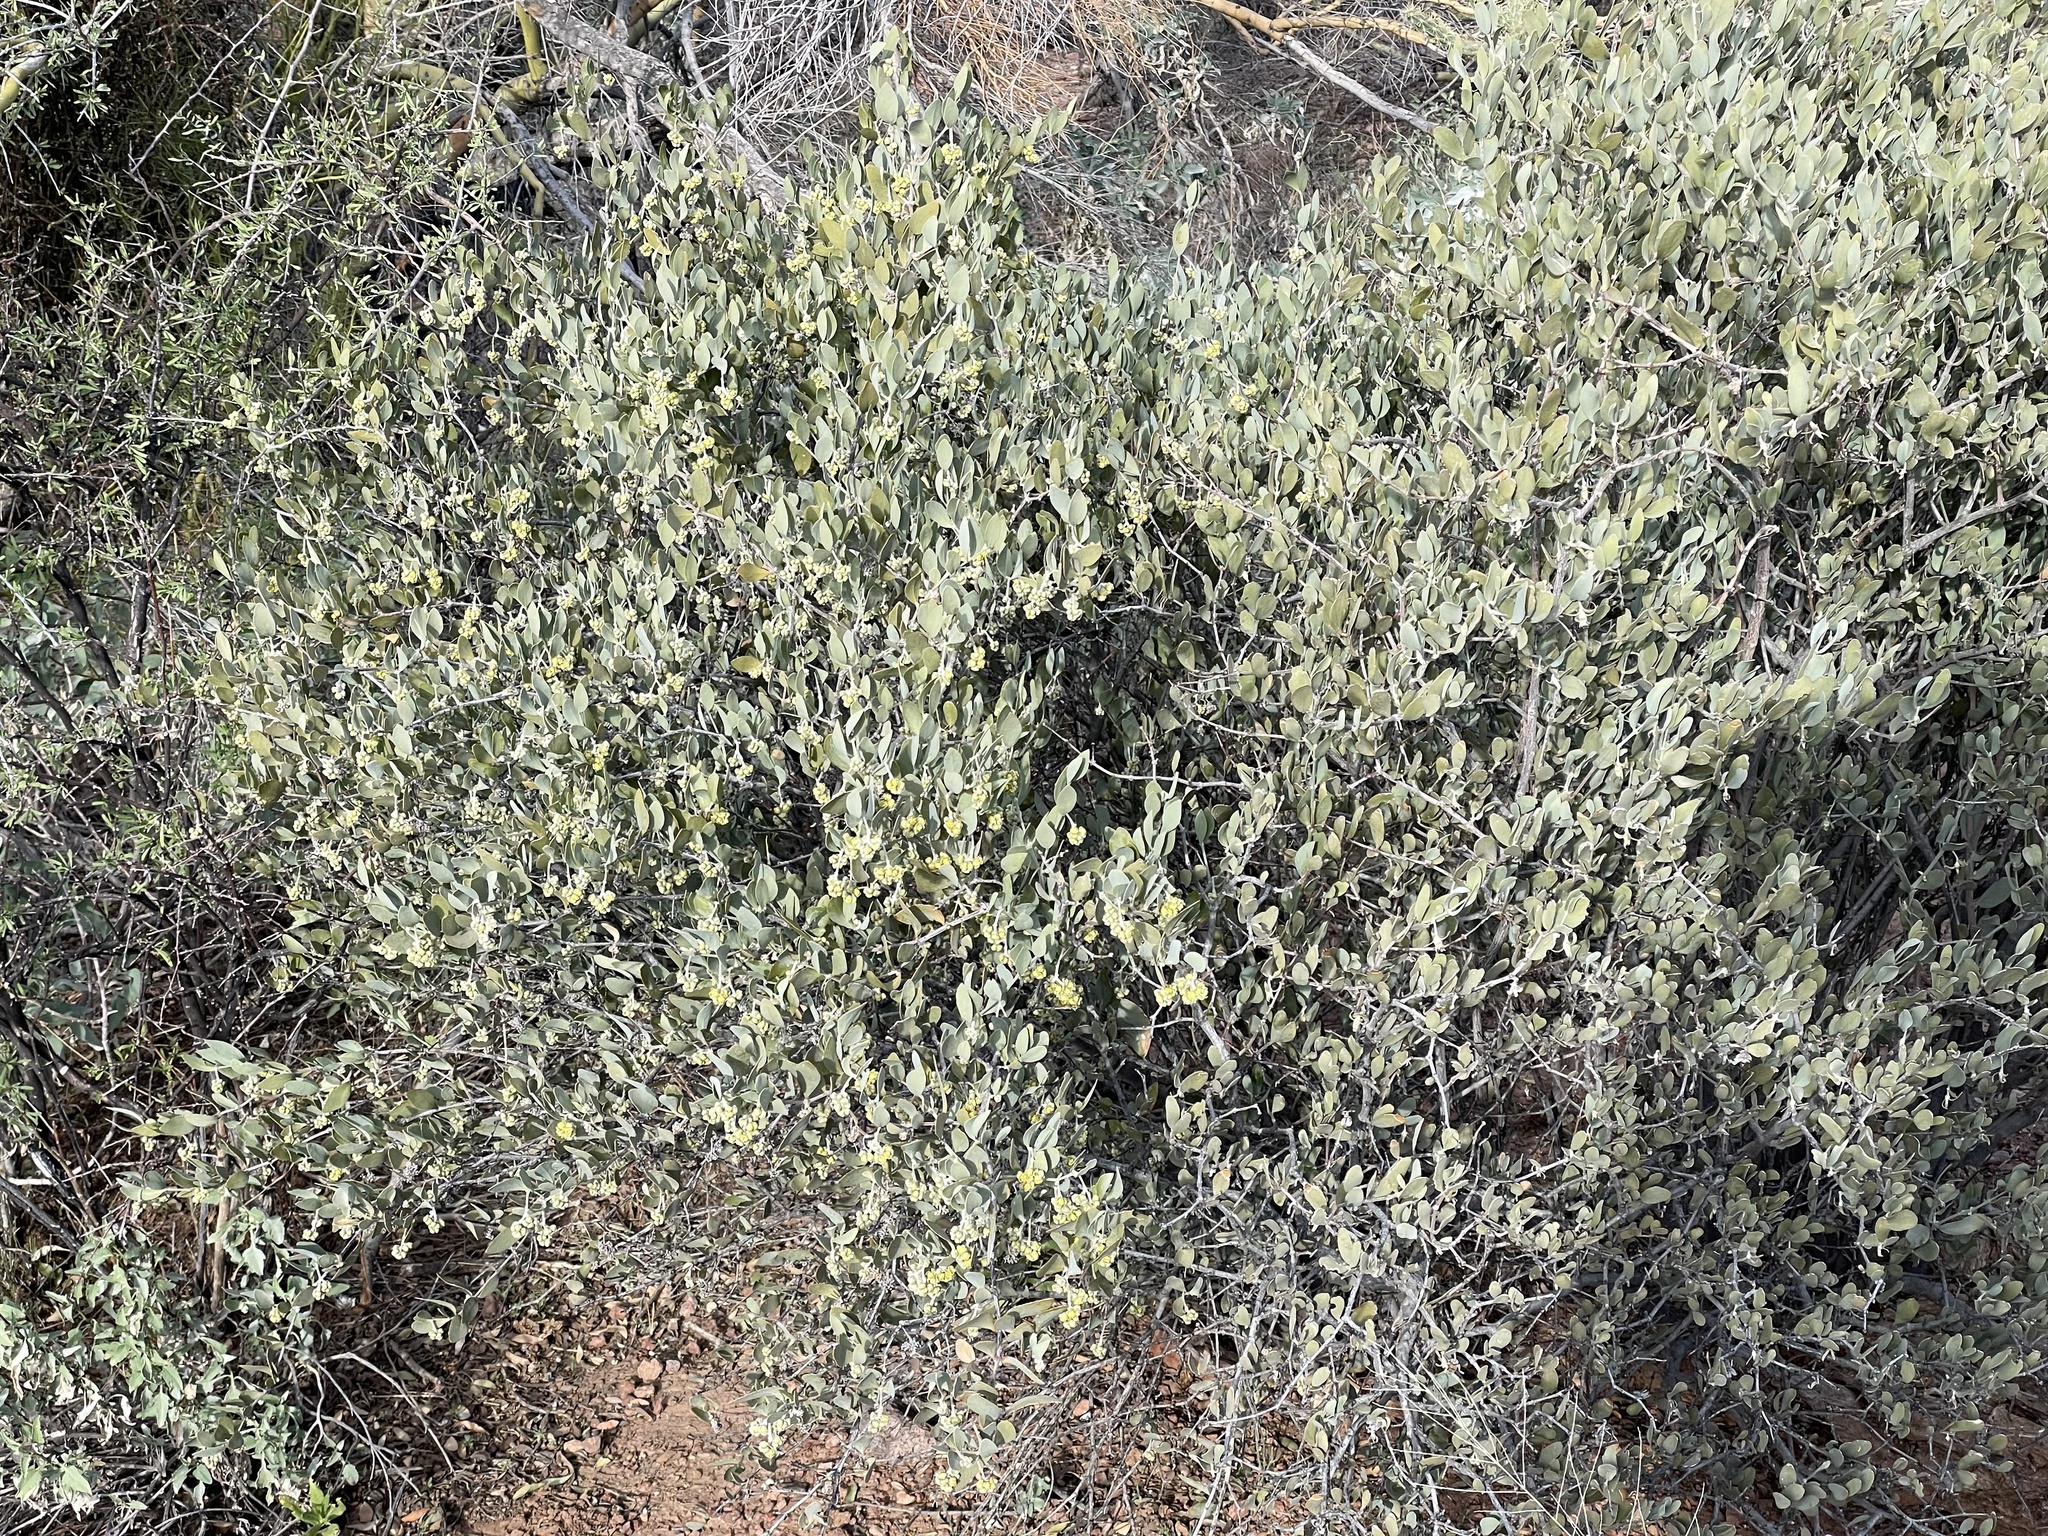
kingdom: Plantae
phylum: Tracheophyta
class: Magnoliopsida
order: Caryophyllales
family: Simmondsiaceae
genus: Simmondsia
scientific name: Simmondsia chinensis
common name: Jojoba
